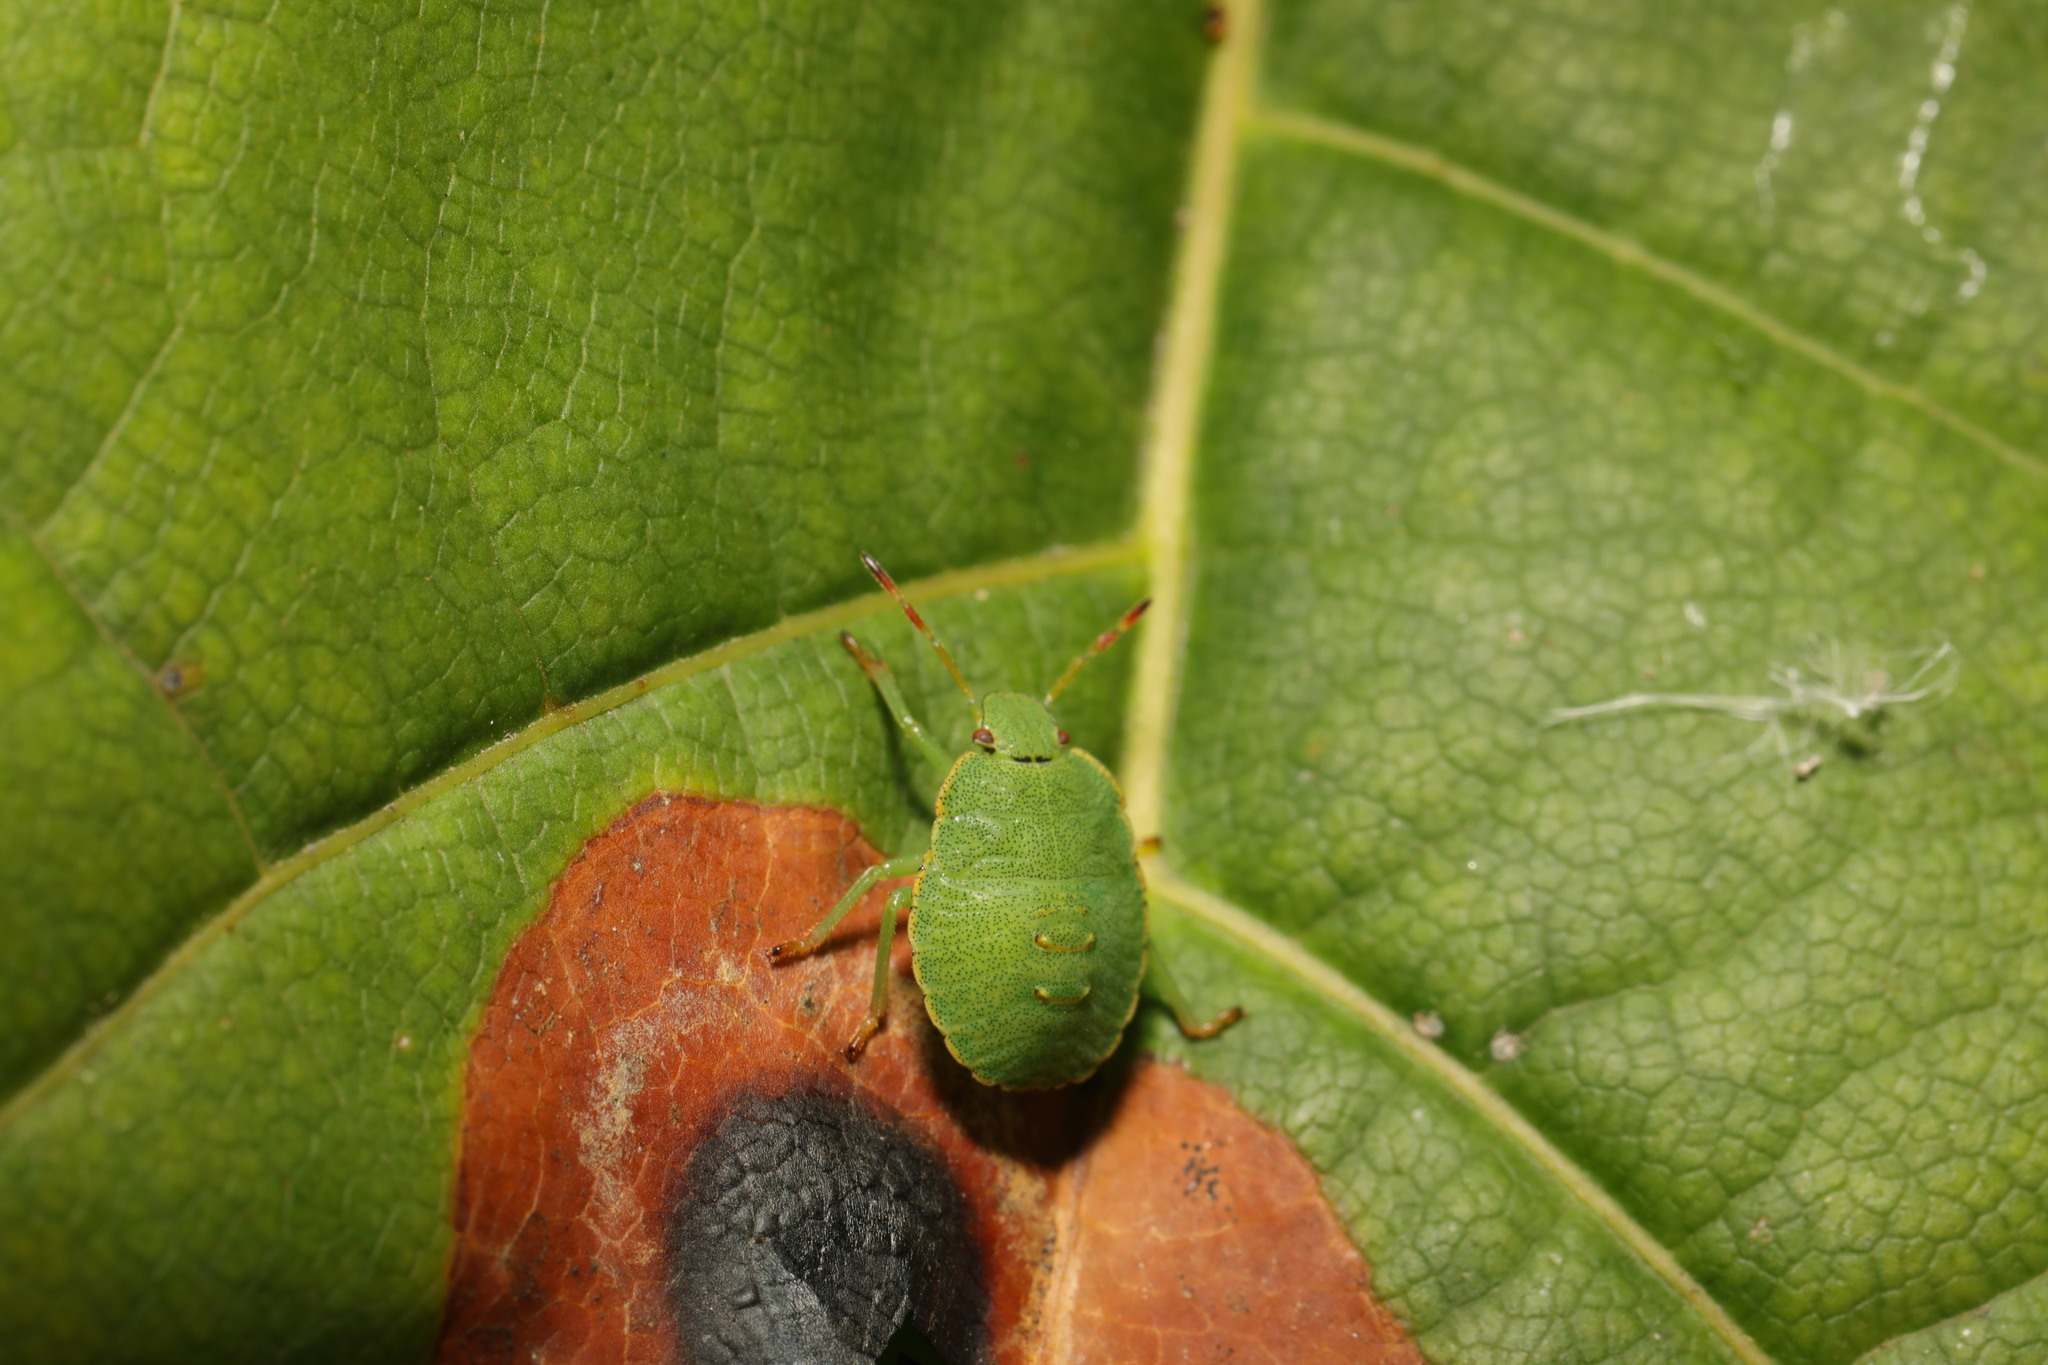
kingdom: Animalia
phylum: Arthropoda
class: Insecta
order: Hemiptera
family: Pentatomidae
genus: Palomena
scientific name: Palomena prasina
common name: Green shieldbug
